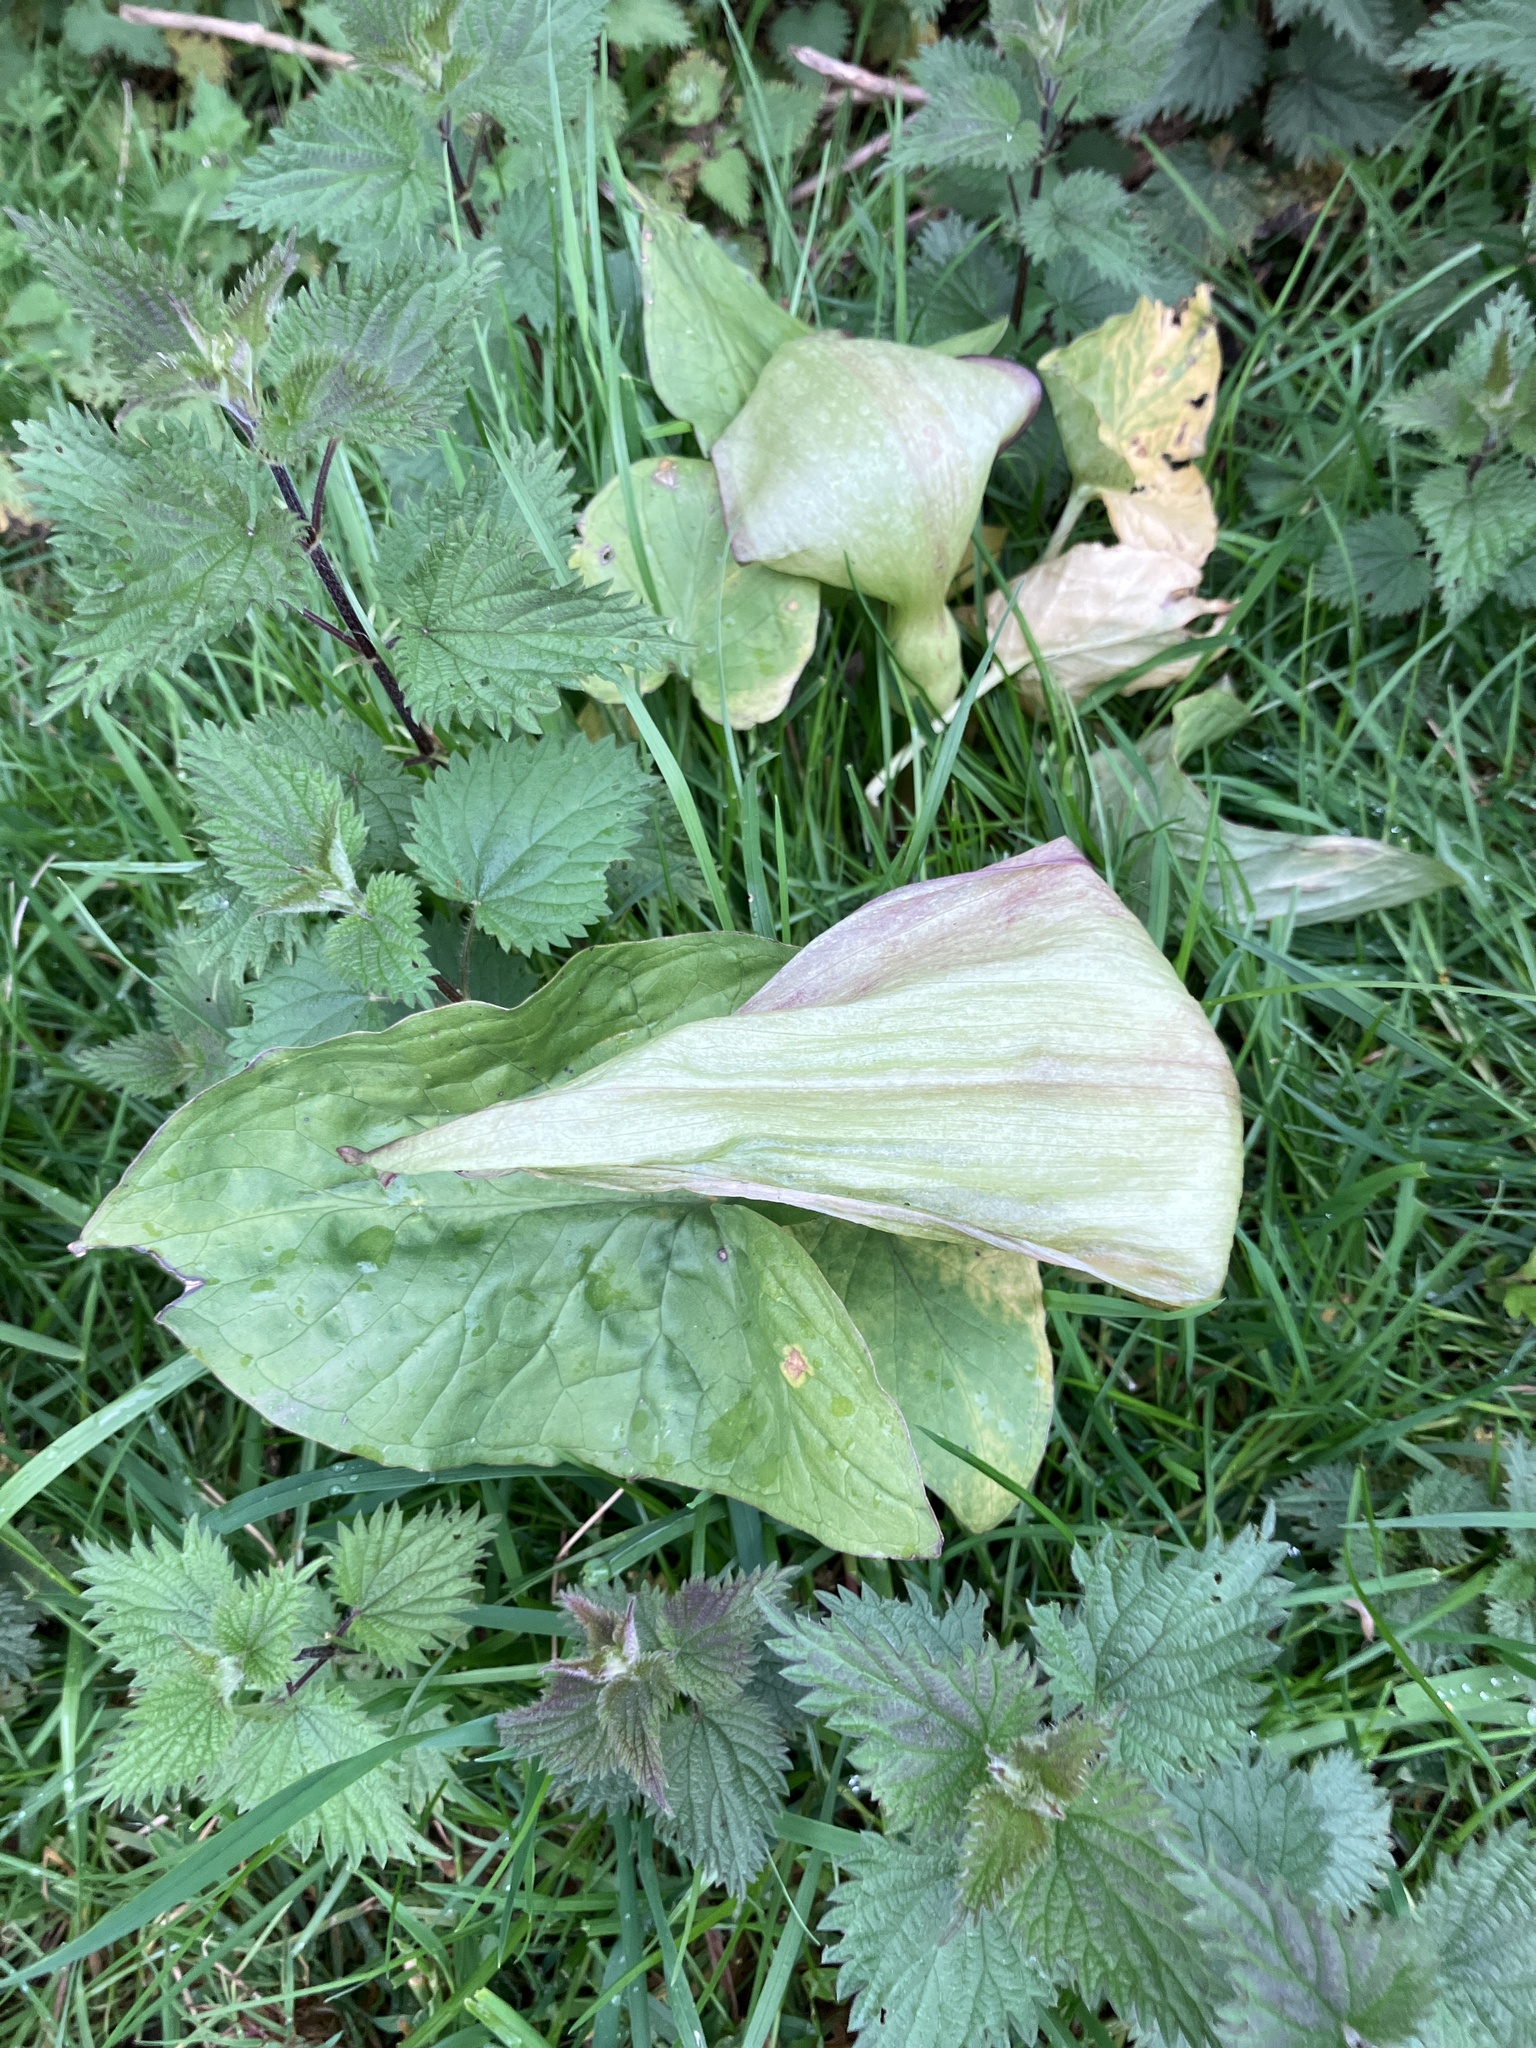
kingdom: Plantae
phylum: Tracheophyta
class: Liliopsida
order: Alismatales
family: Araceae
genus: Arum
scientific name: Arum maculatum
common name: Lords-and-ladies
